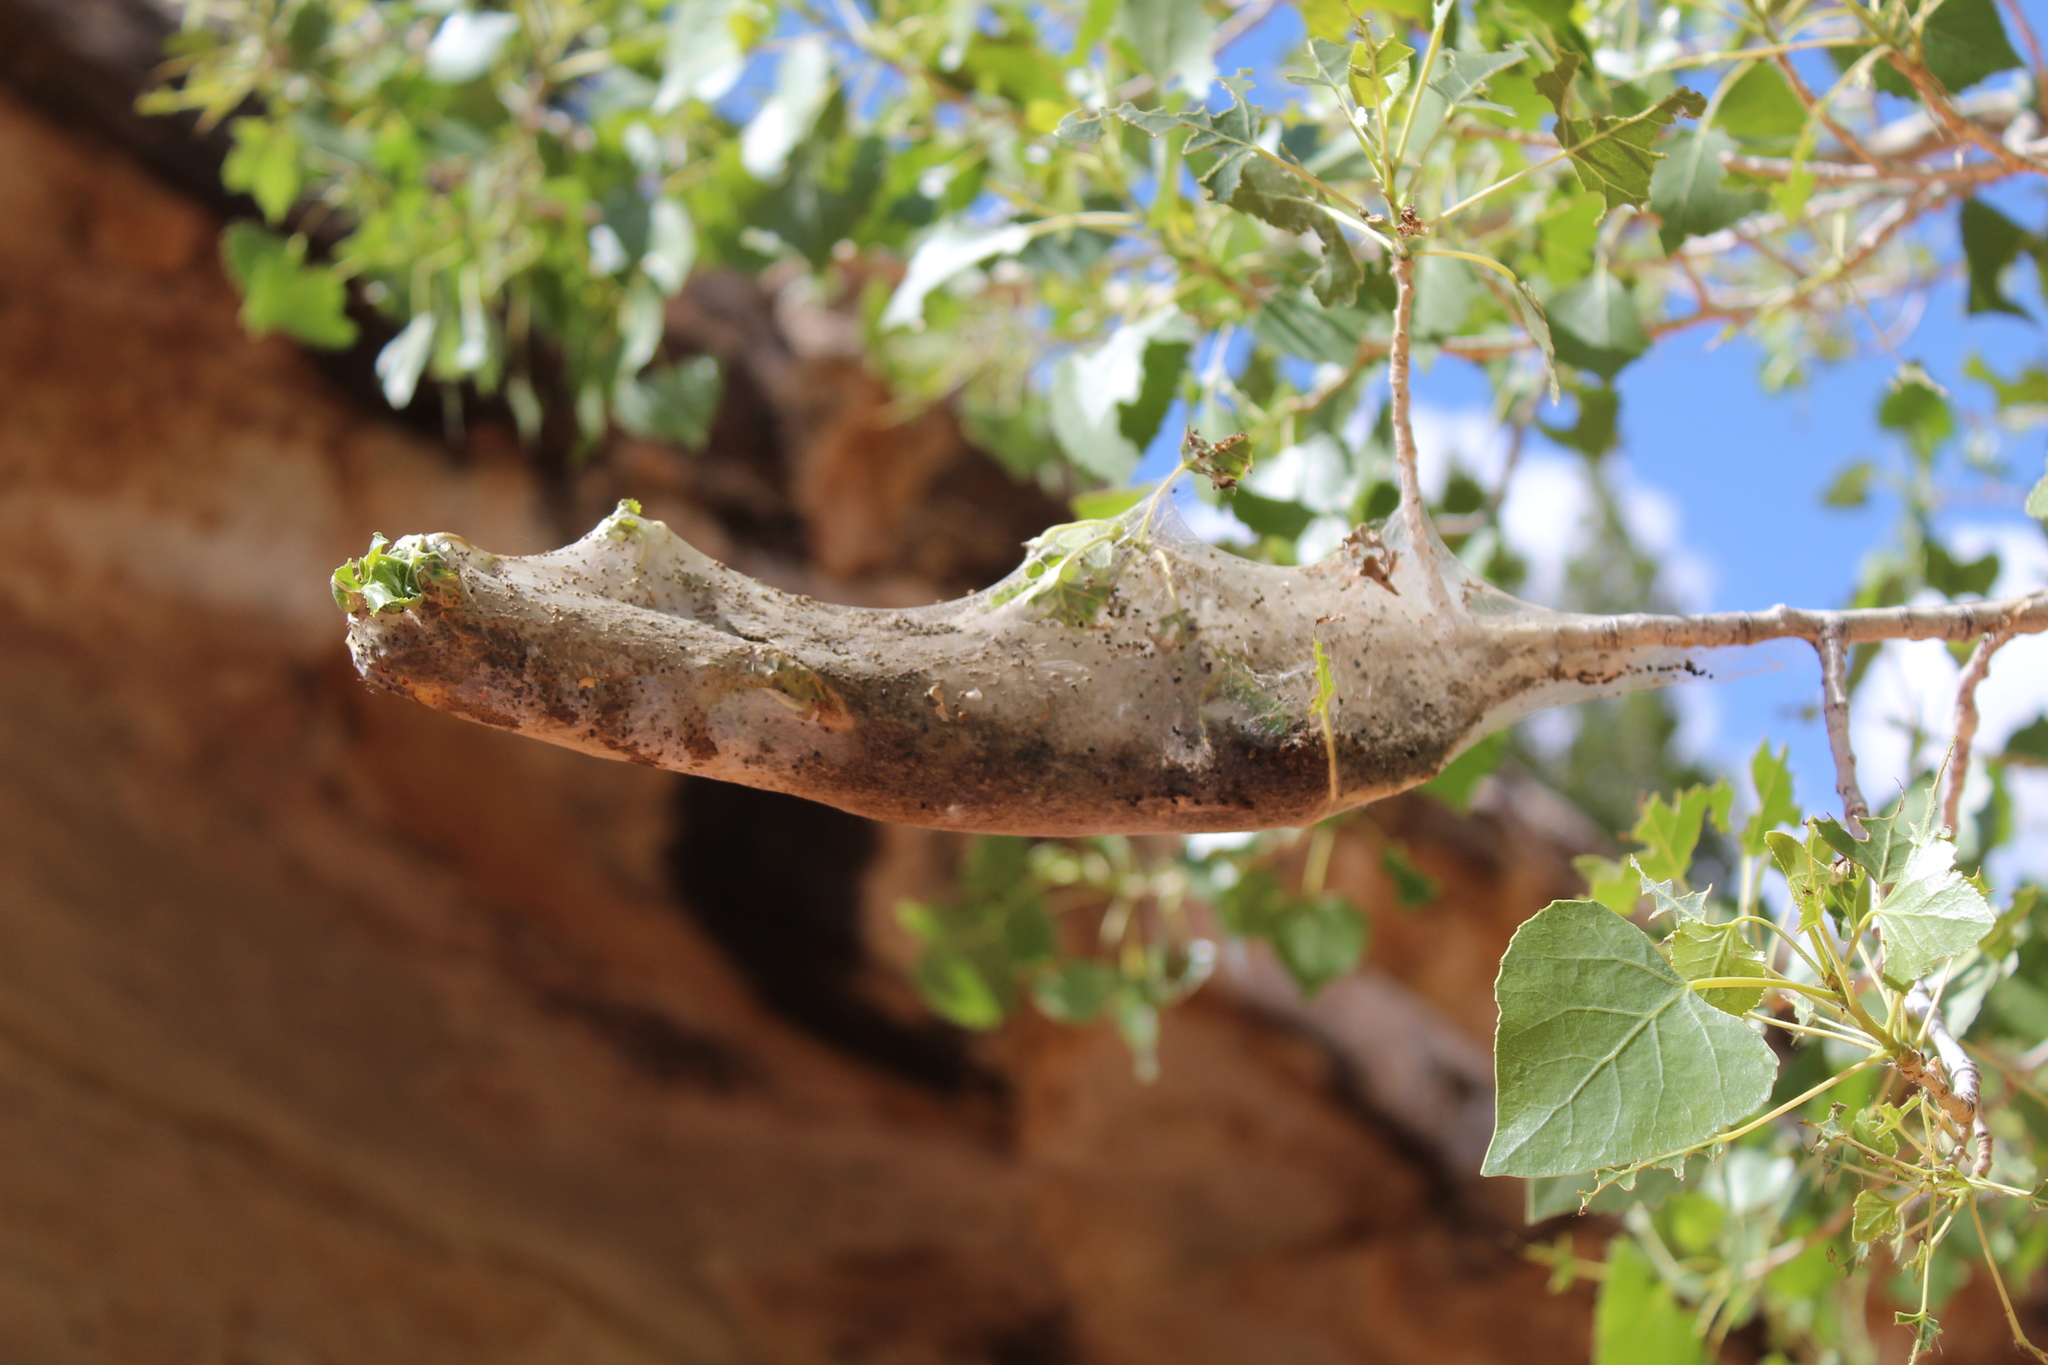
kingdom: Animalia
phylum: Arthropoda
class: Insecta
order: Lepidoptera
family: Lasiocampidae
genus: Malacosoma
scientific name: Malacosoma californica
